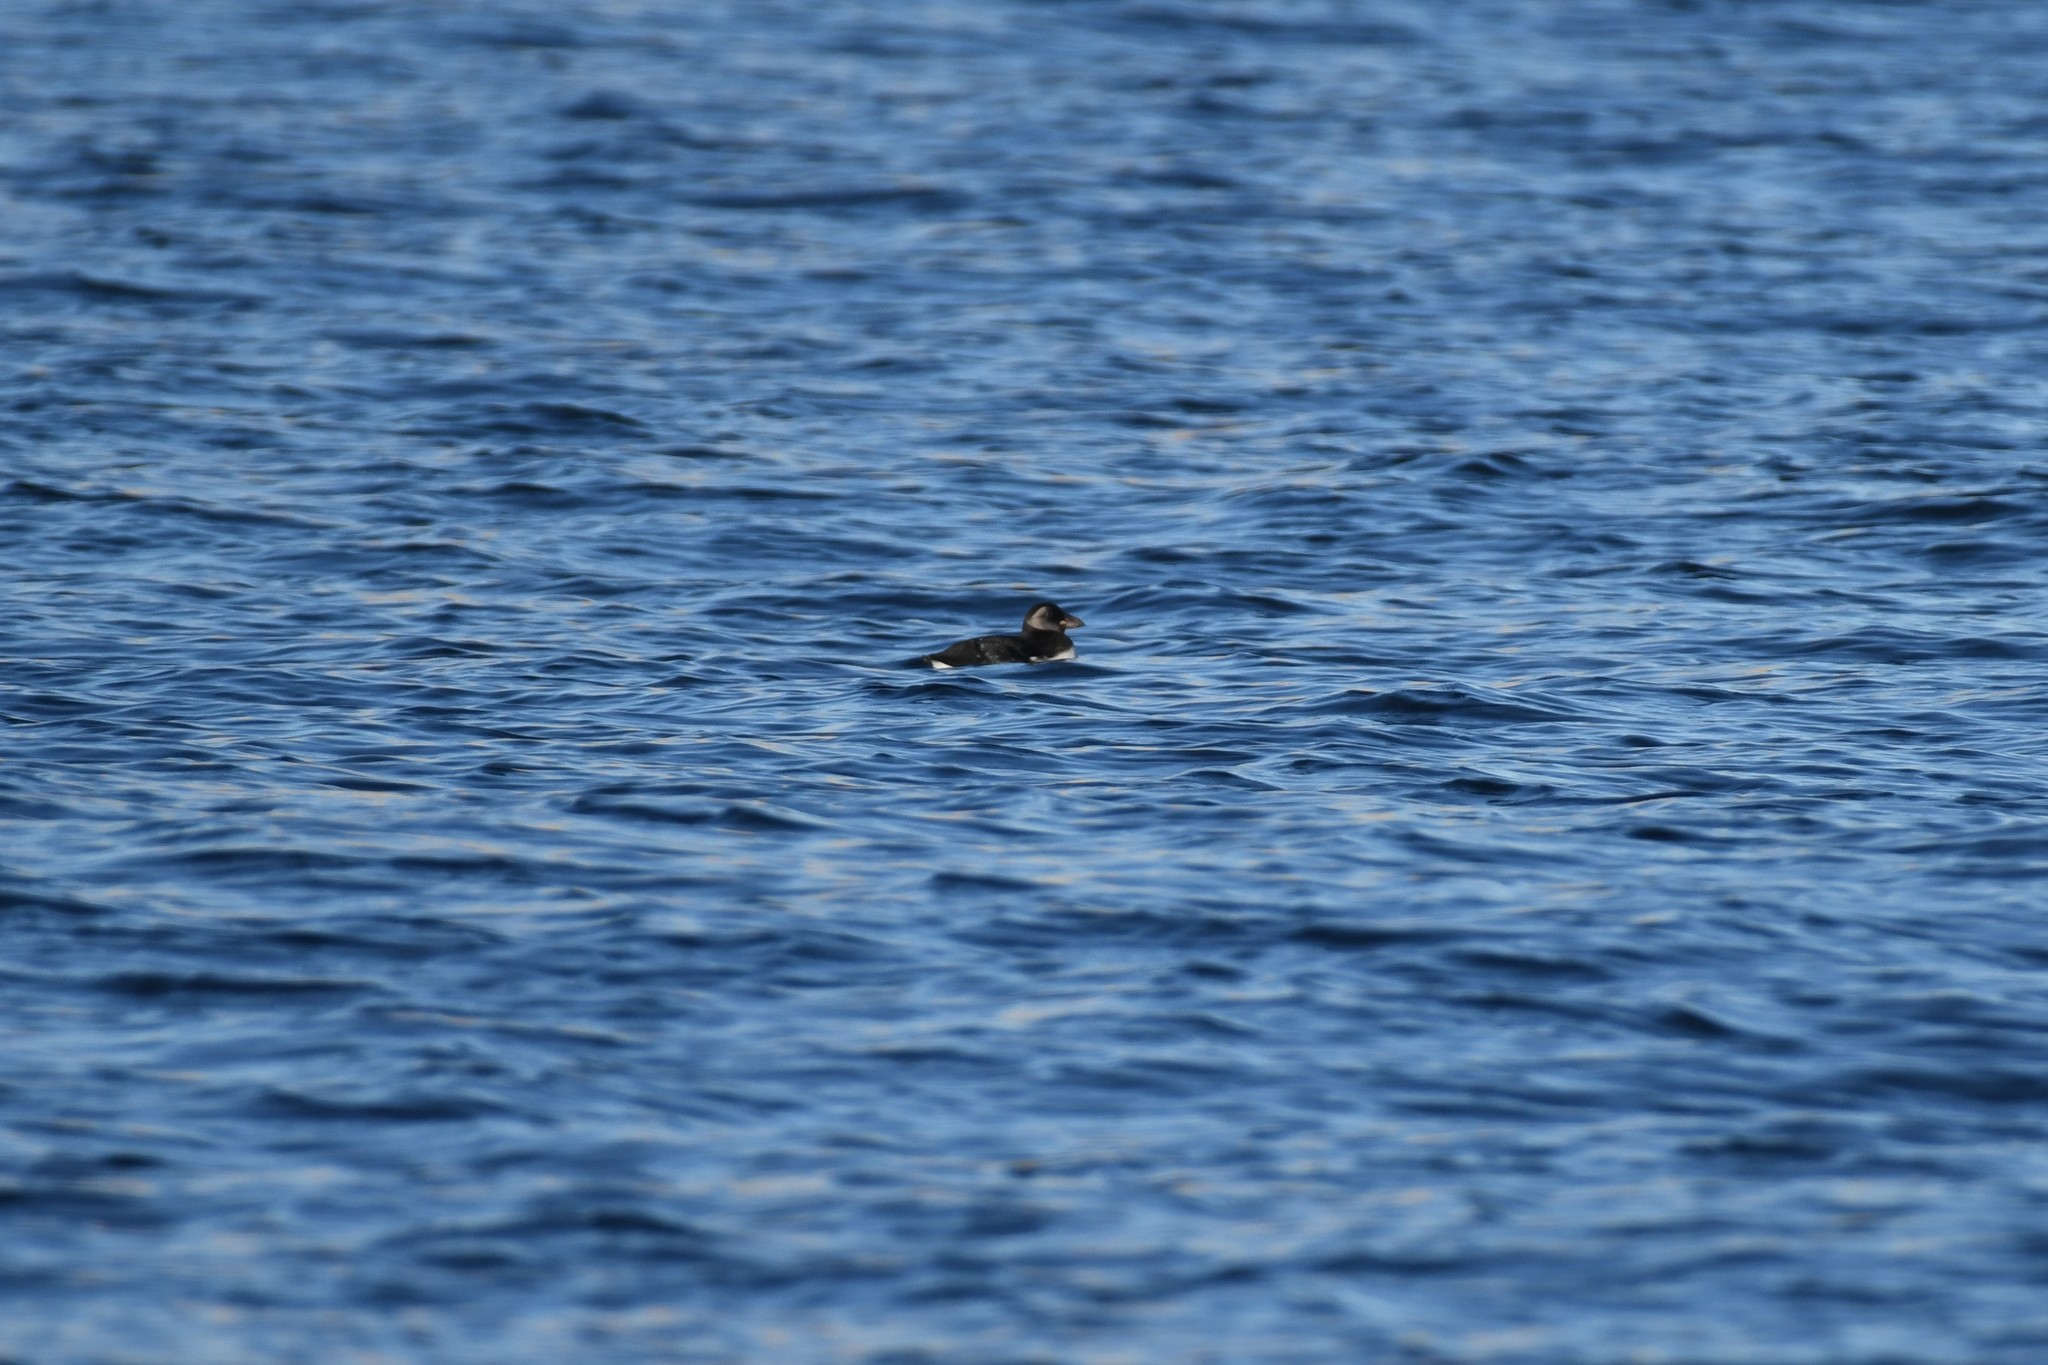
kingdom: Animalia
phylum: Chordata
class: Aves
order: Charadriiformes
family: Alcidae
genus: Fratercula
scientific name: Fratercula arctica
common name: Atlantic puffin
